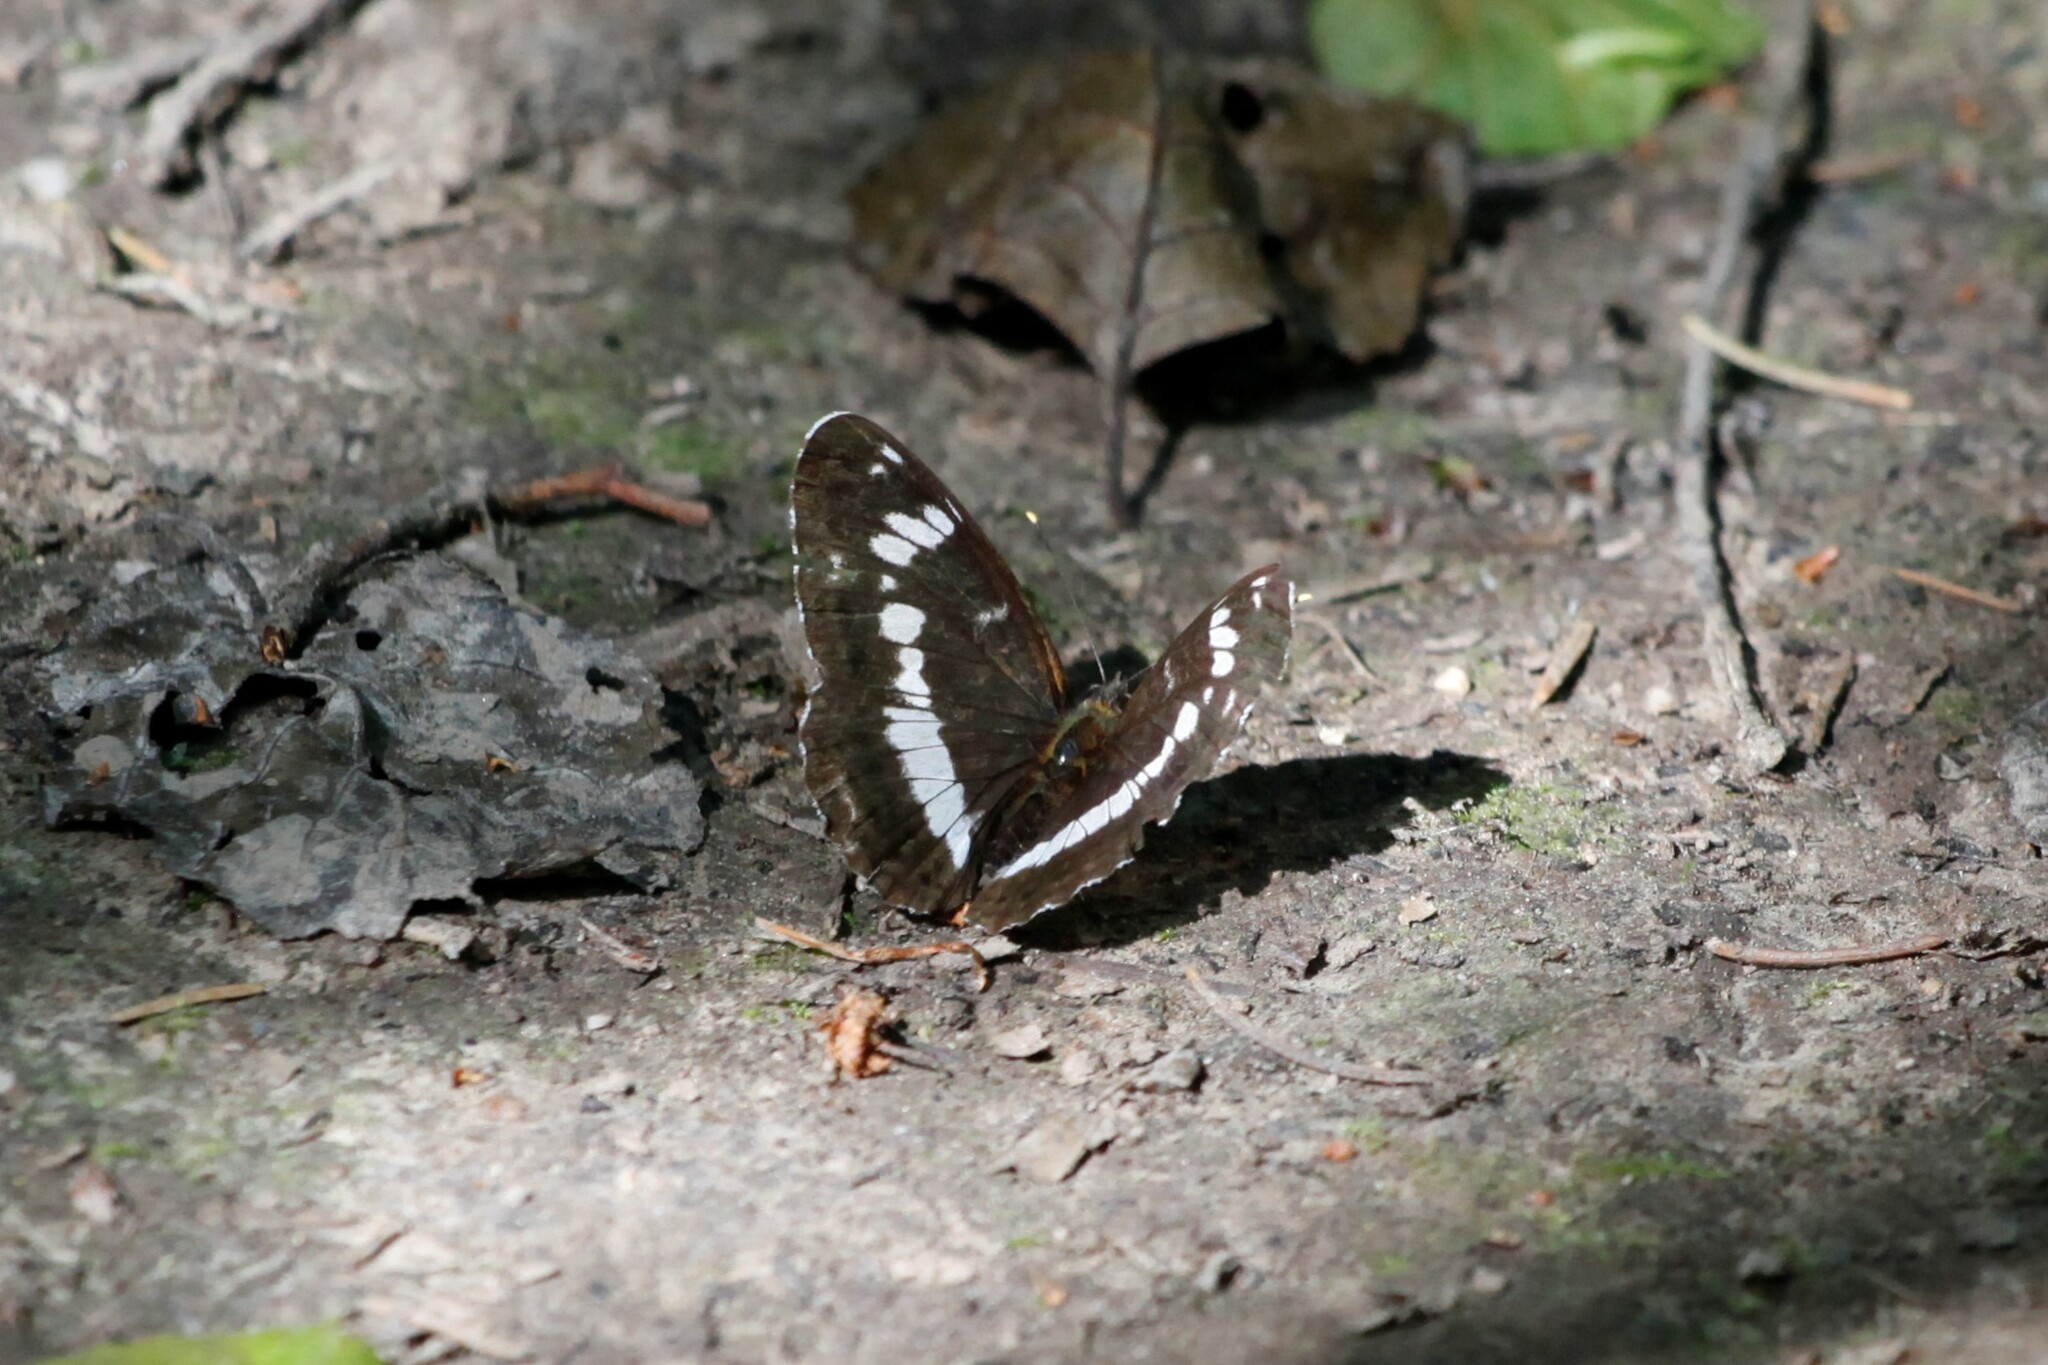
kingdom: Animalia
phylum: Arthropoda
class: Insecta
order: Lepidoptera
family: Nymphalidae
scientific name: Nymphalidae
